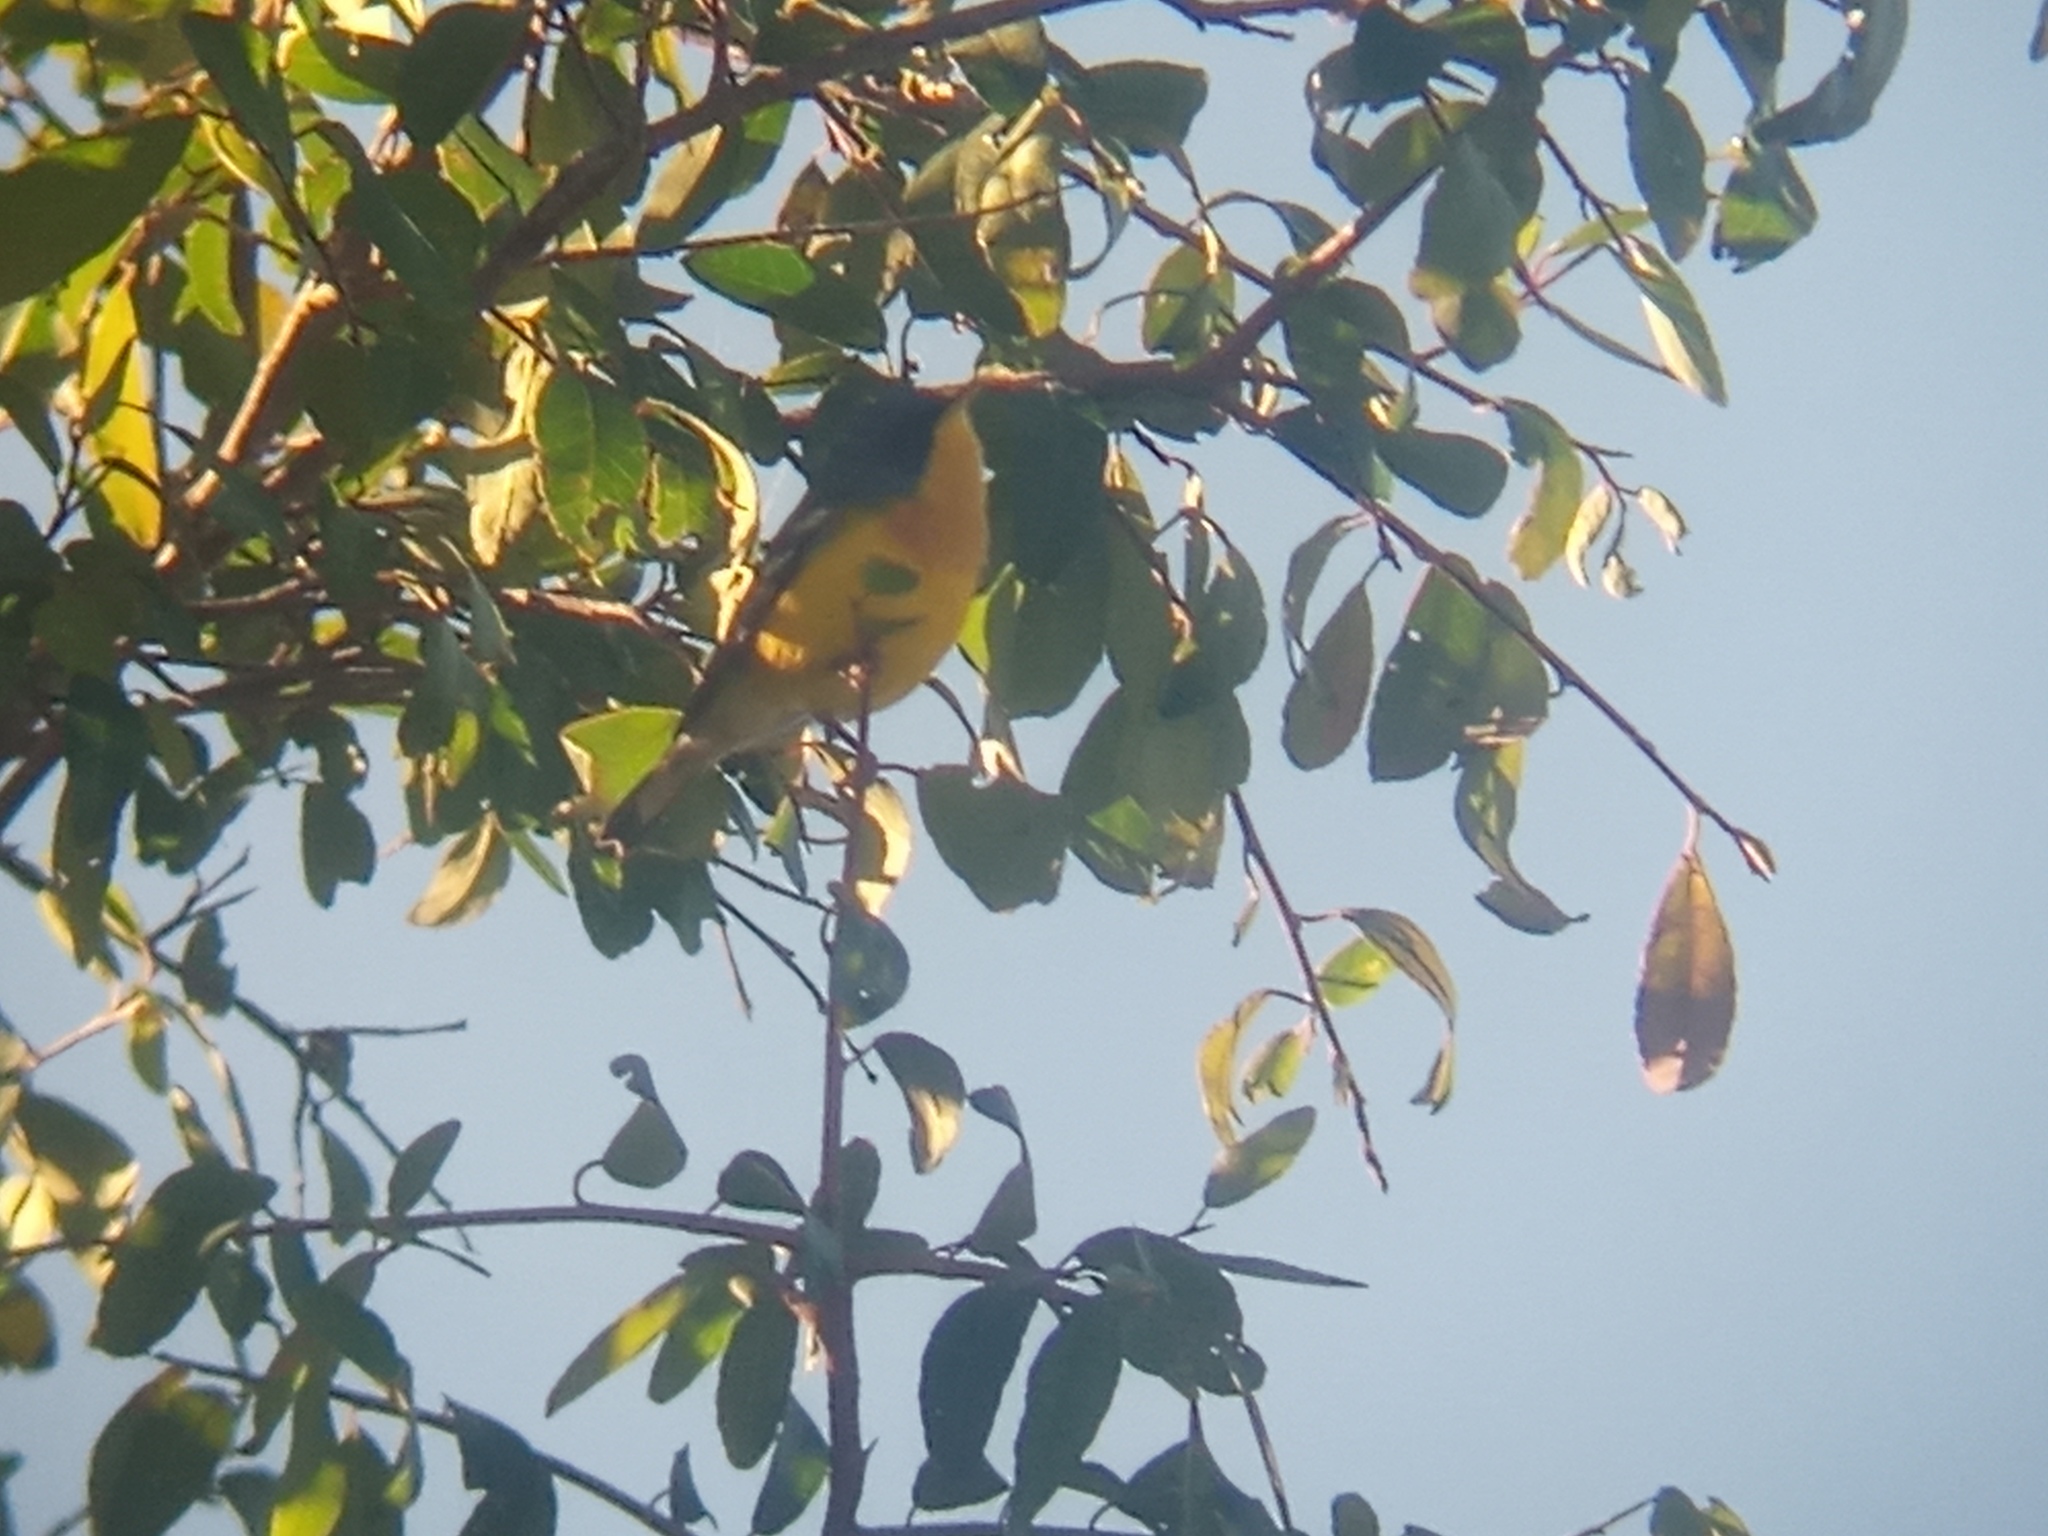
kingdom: Animalia
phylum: Chordata
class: Aves
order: Passeriformes
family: Parulidae
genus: Setophaga
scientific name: Setophaga pitiayumi
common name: Tropical parula
